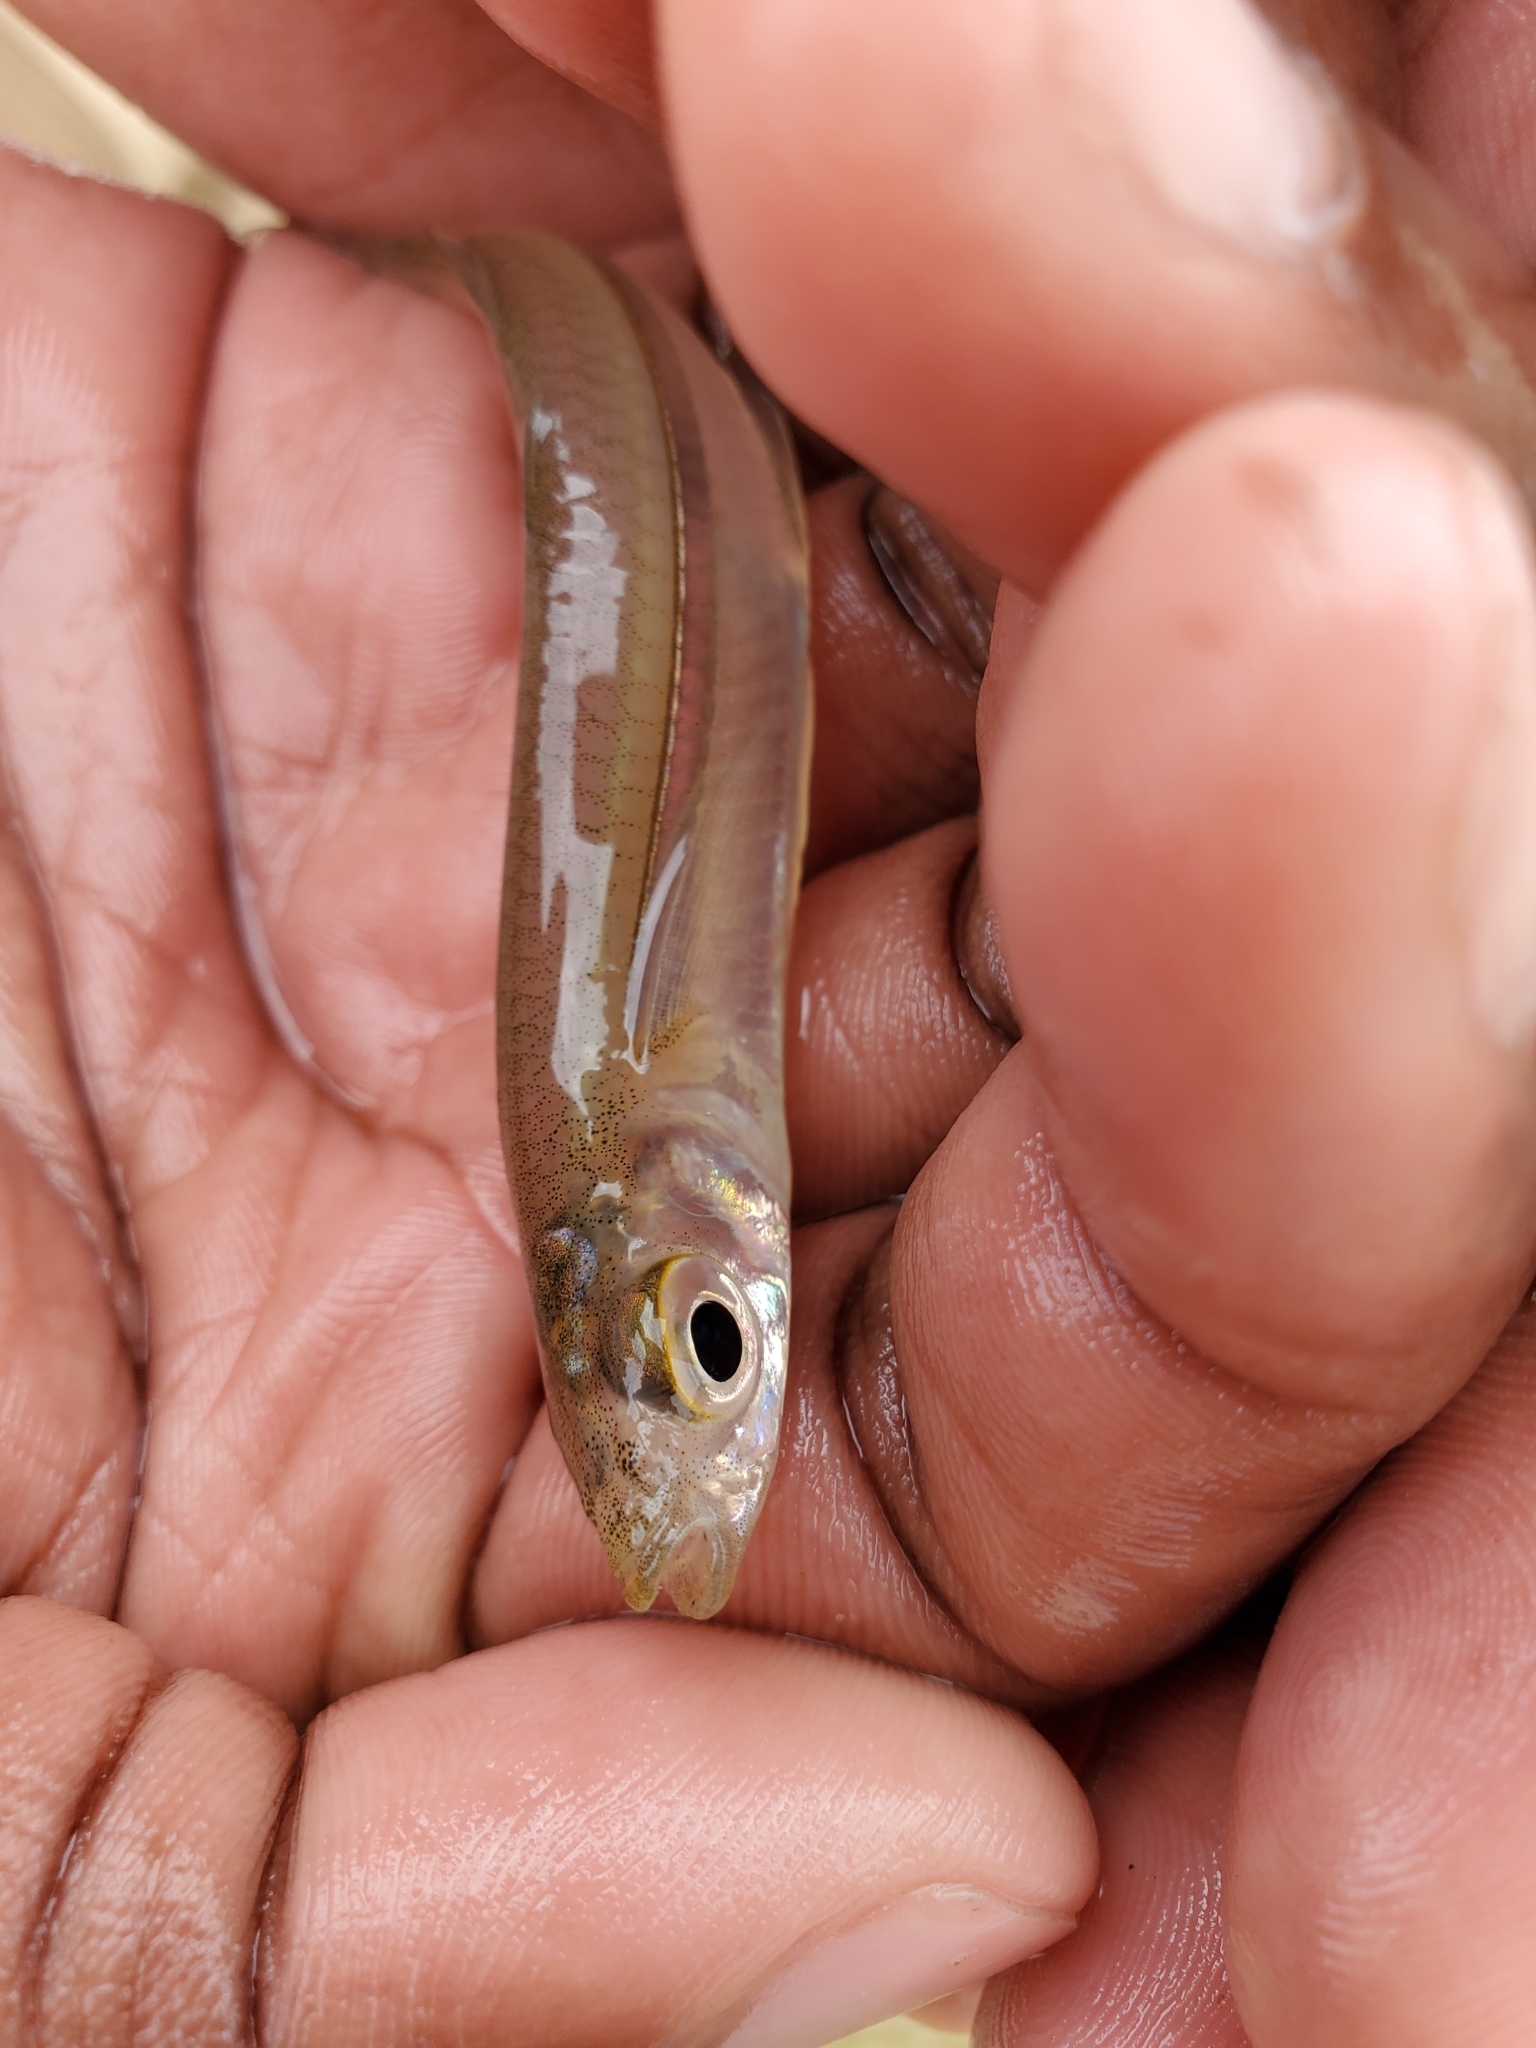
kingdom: Animalia
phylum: Chordata
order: Atheriniformes
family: Atherinopsidae
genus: Menidia
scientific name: Menidia menidia
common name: Atlantic silverside
